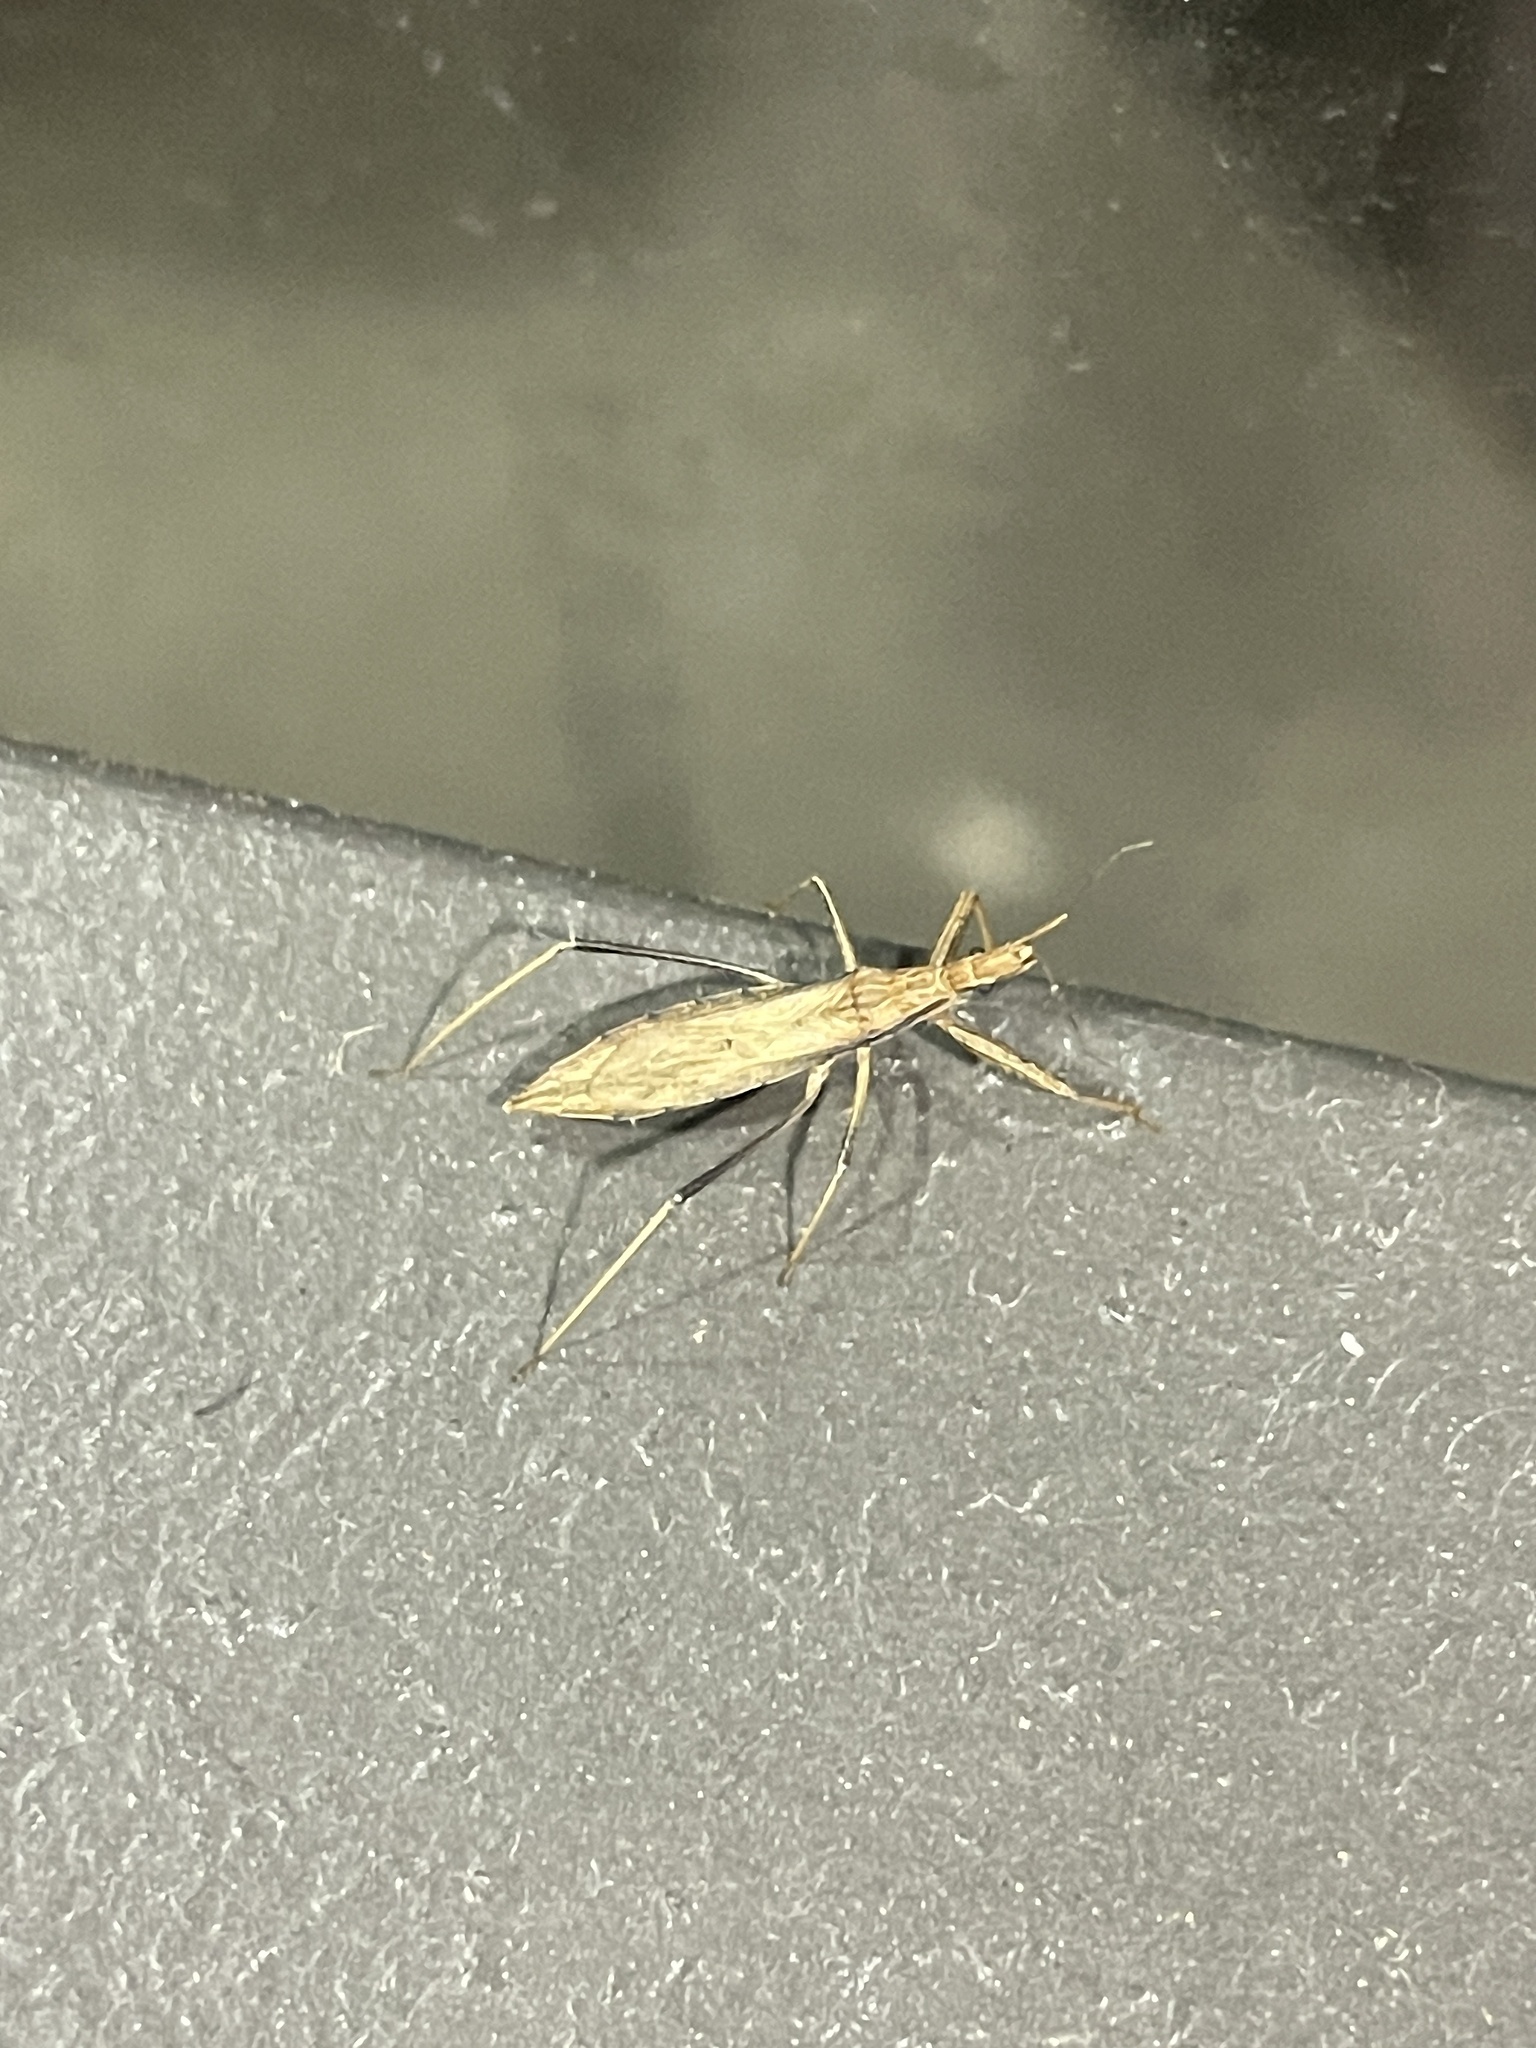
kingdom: Animalia
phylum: Arthropoda
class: Insecta
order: Hemiptera
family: Reduviidae
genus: Sastrapada
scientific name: Sastrapada australica
